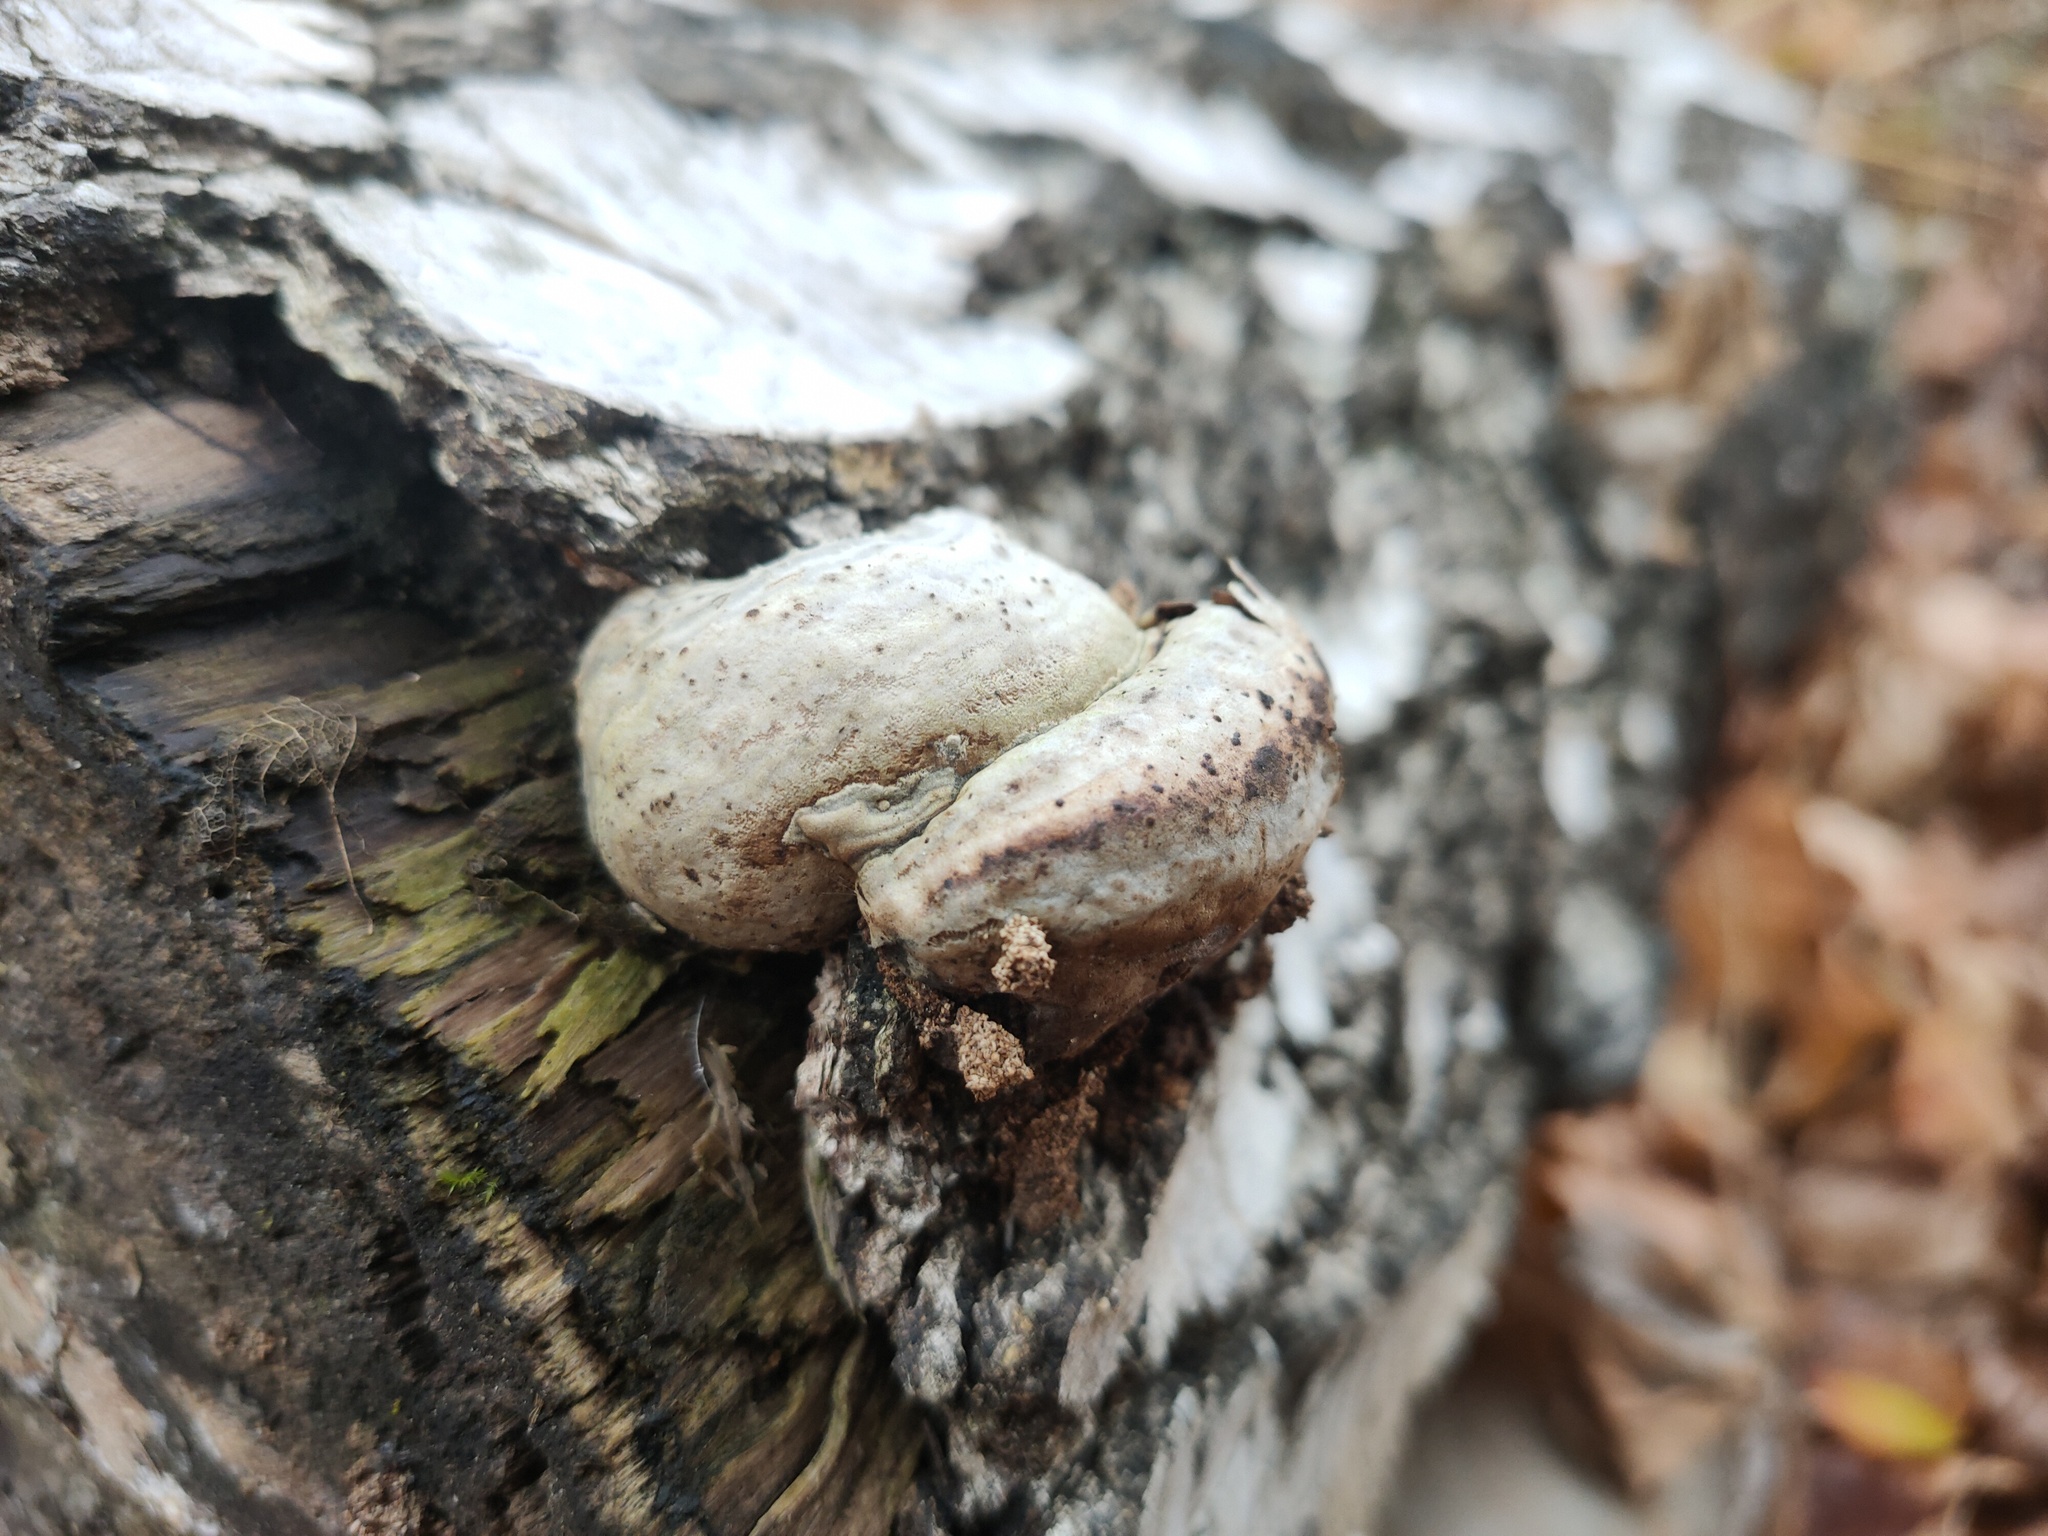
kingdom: Fungi
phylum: Basidiomycota
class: Agaricomycetes
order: Polyporales
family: Polyporaceae
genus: Fomes
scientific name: Fomes fomentarius
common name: Hoof fungus
